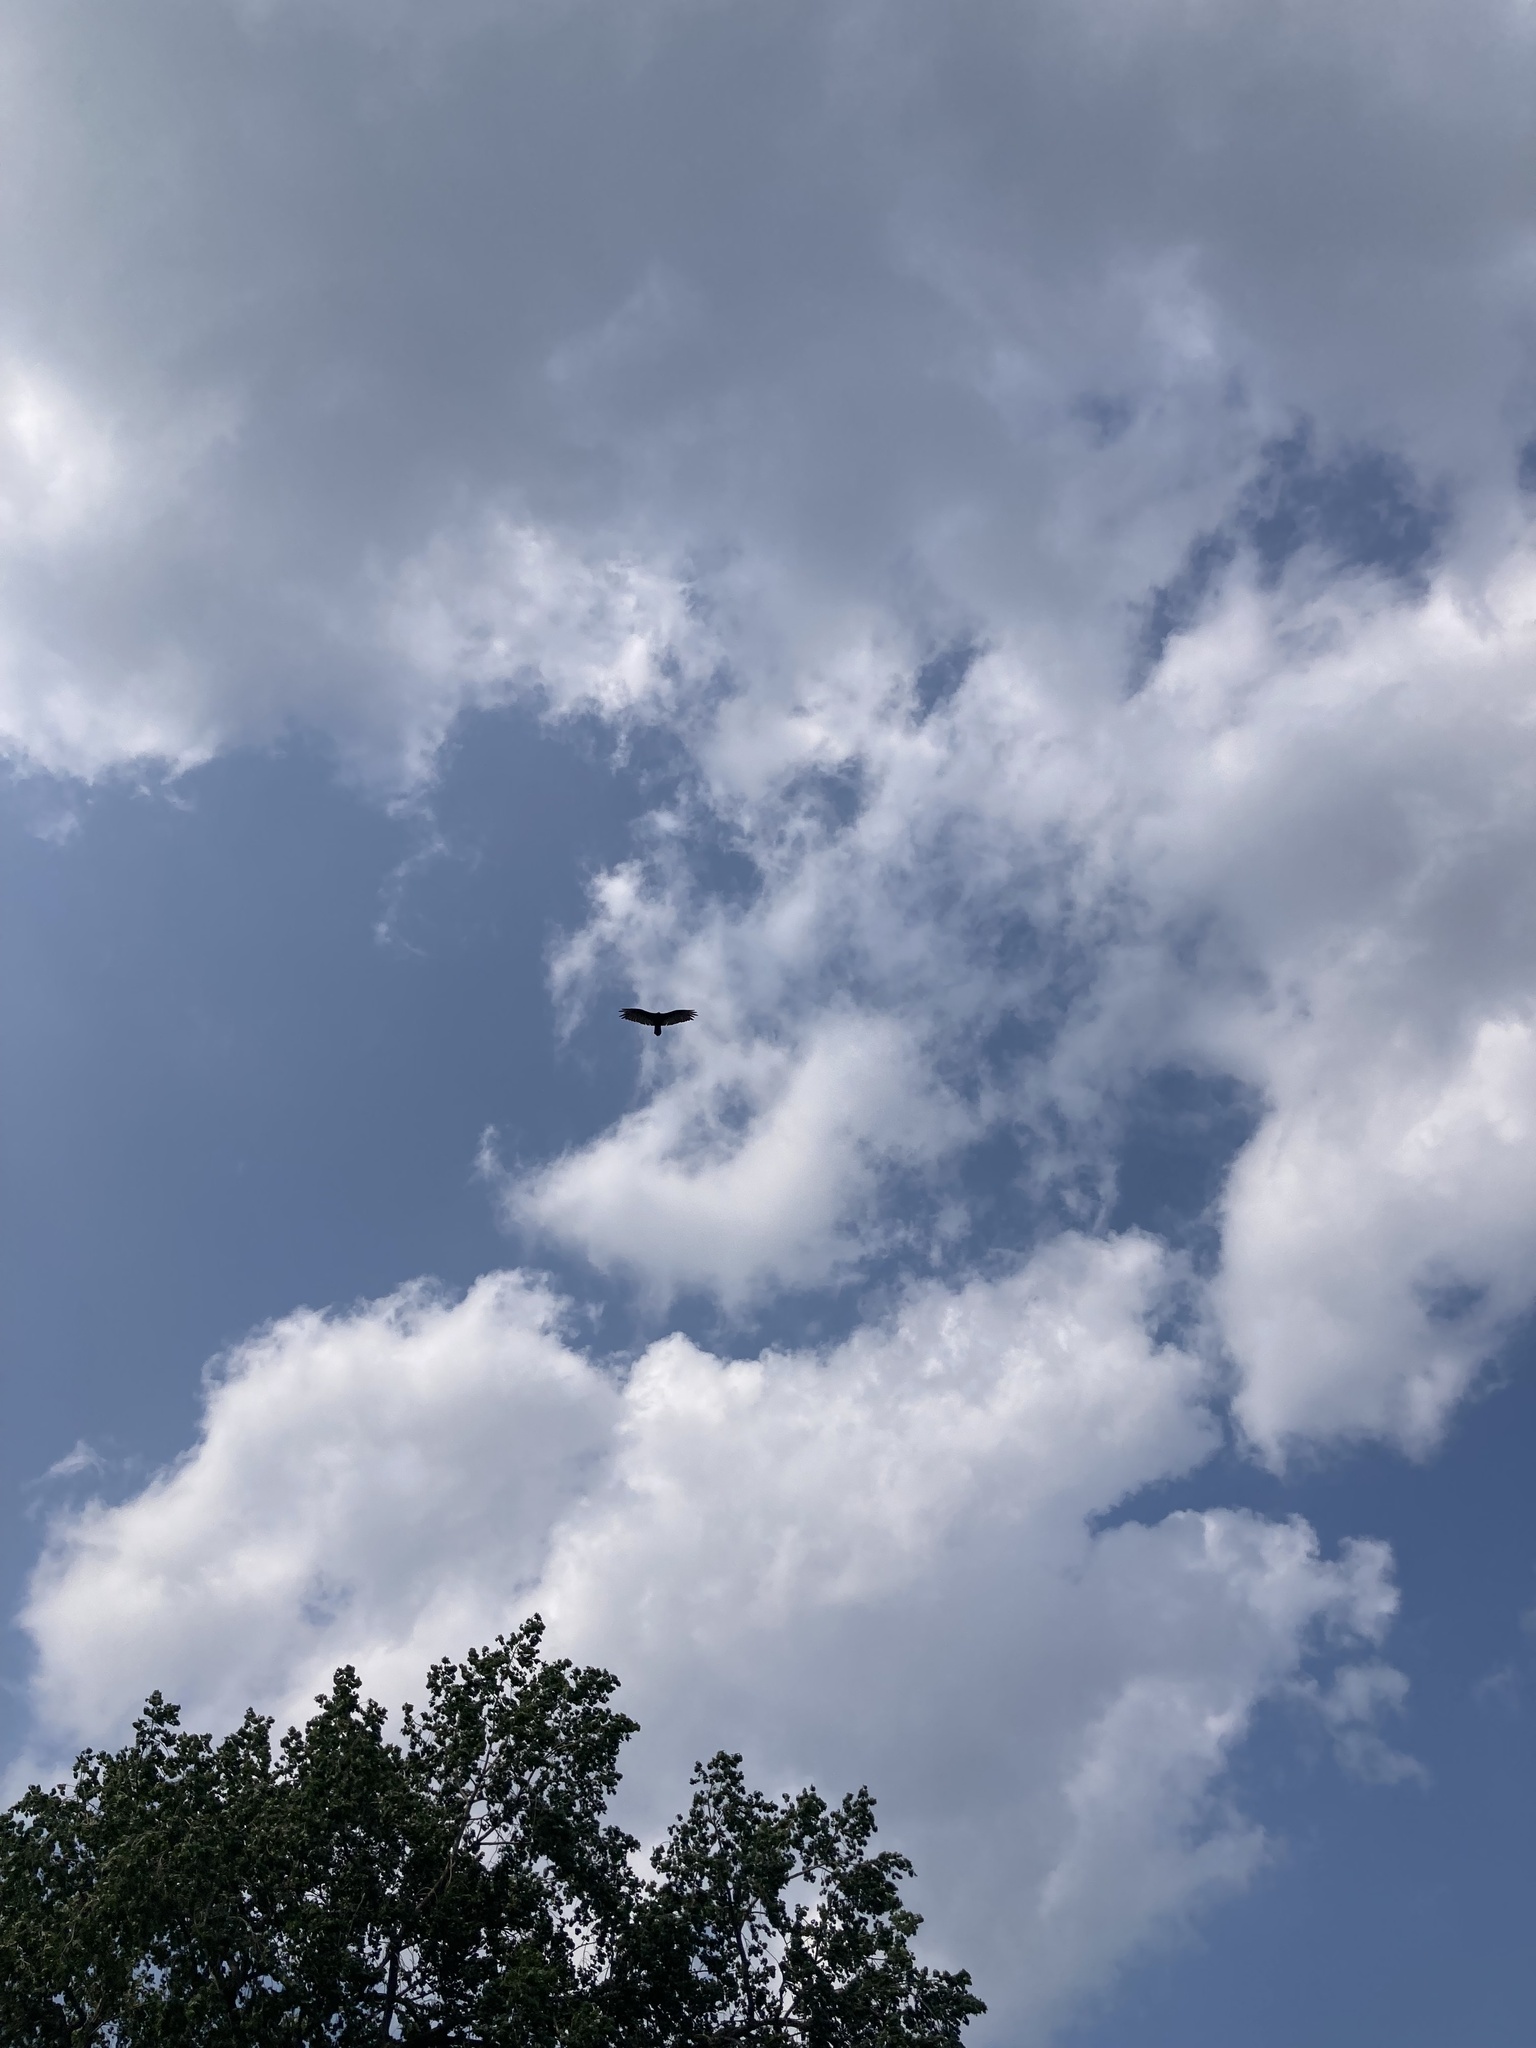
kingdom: Animalia
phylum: Chordata
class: Aves
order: Accipitriformes
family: Cathartidae
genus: Cathartes
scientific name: Cathartes aura
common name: Turkey vulture
